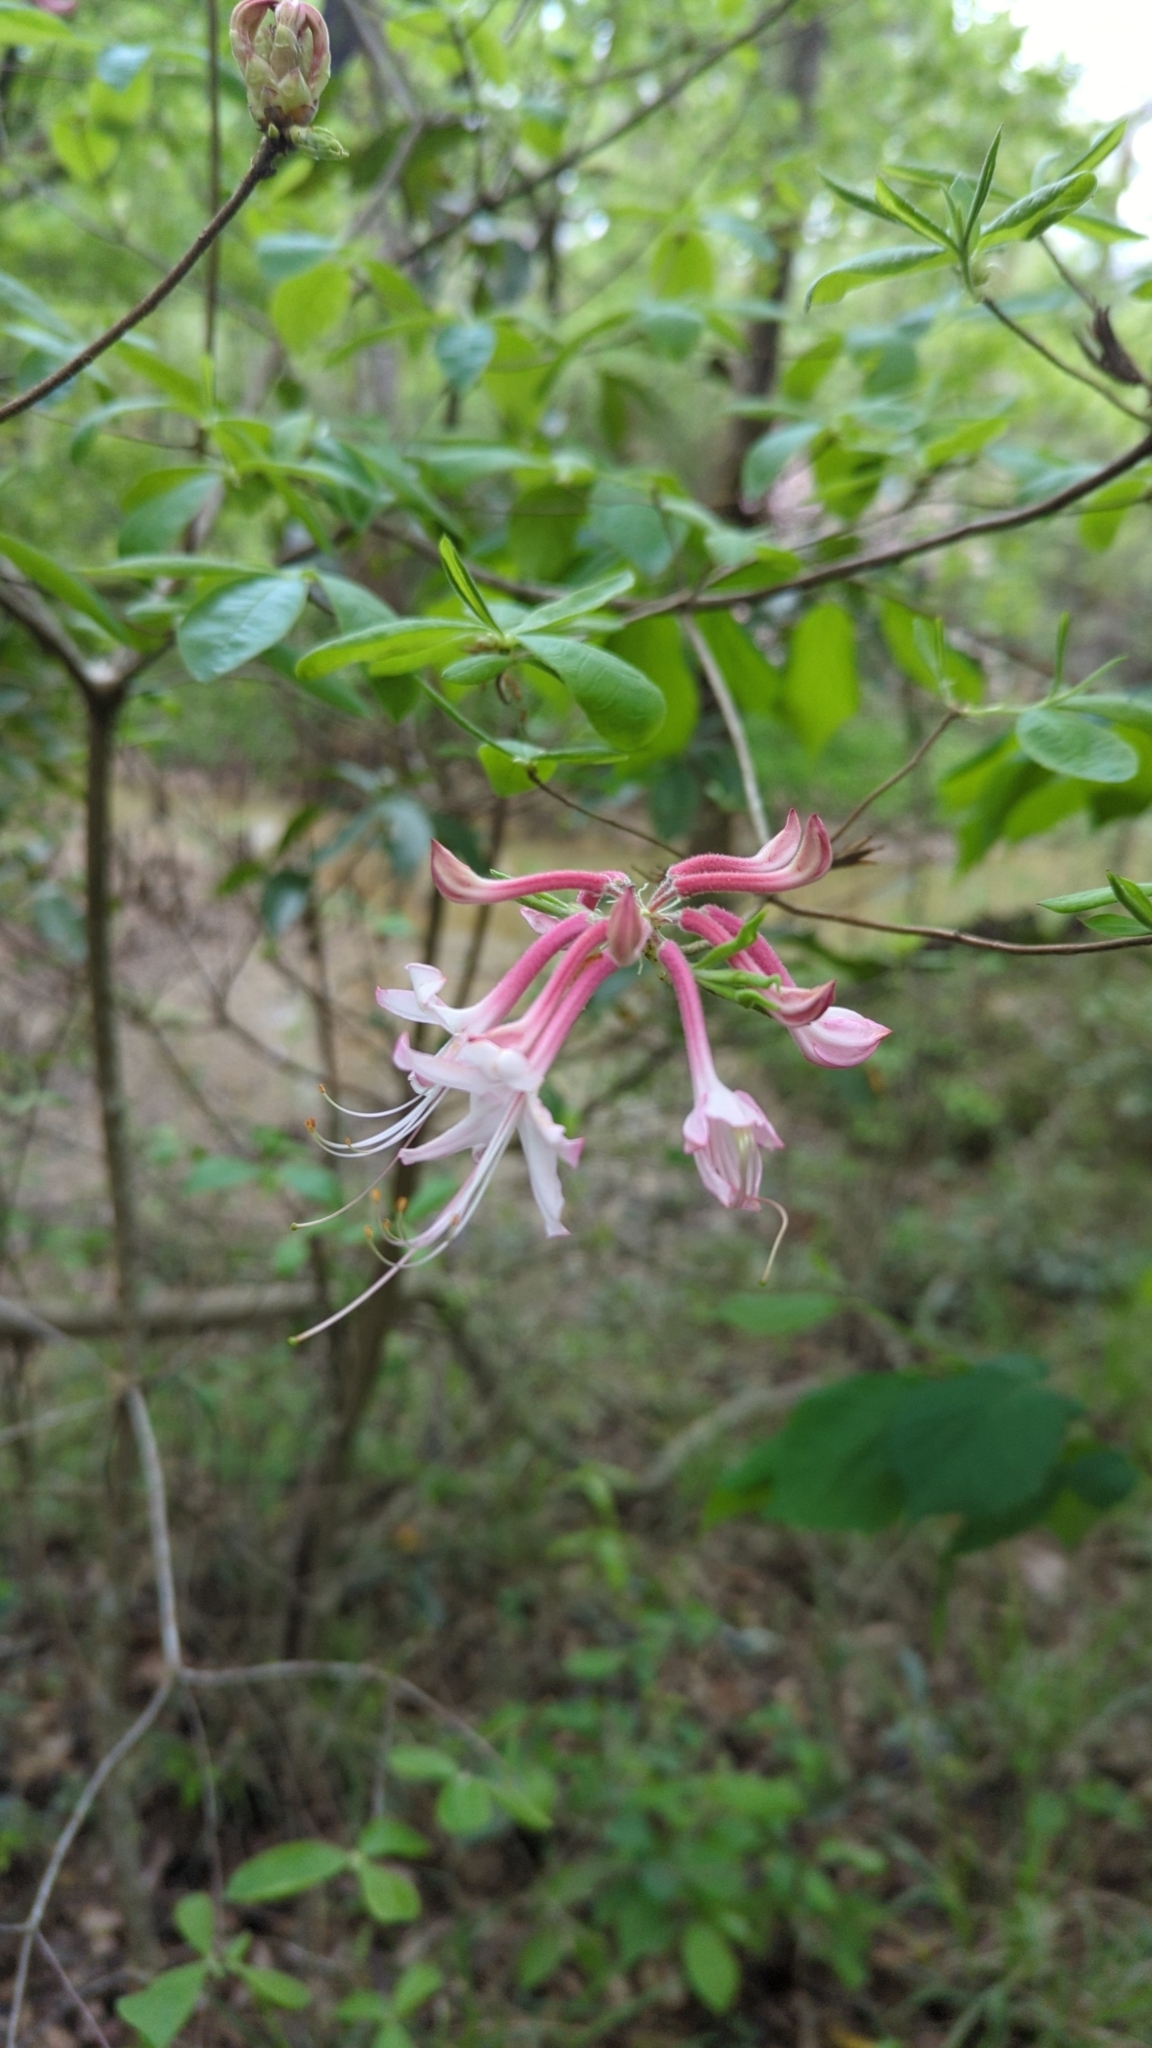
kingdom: Plantae
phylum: Tracheophyta
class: Magnoliopsida
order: Ericales
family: Ericaceae
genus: Rhododendron
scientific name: Rhododendron canescens
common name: Mountain azalea
